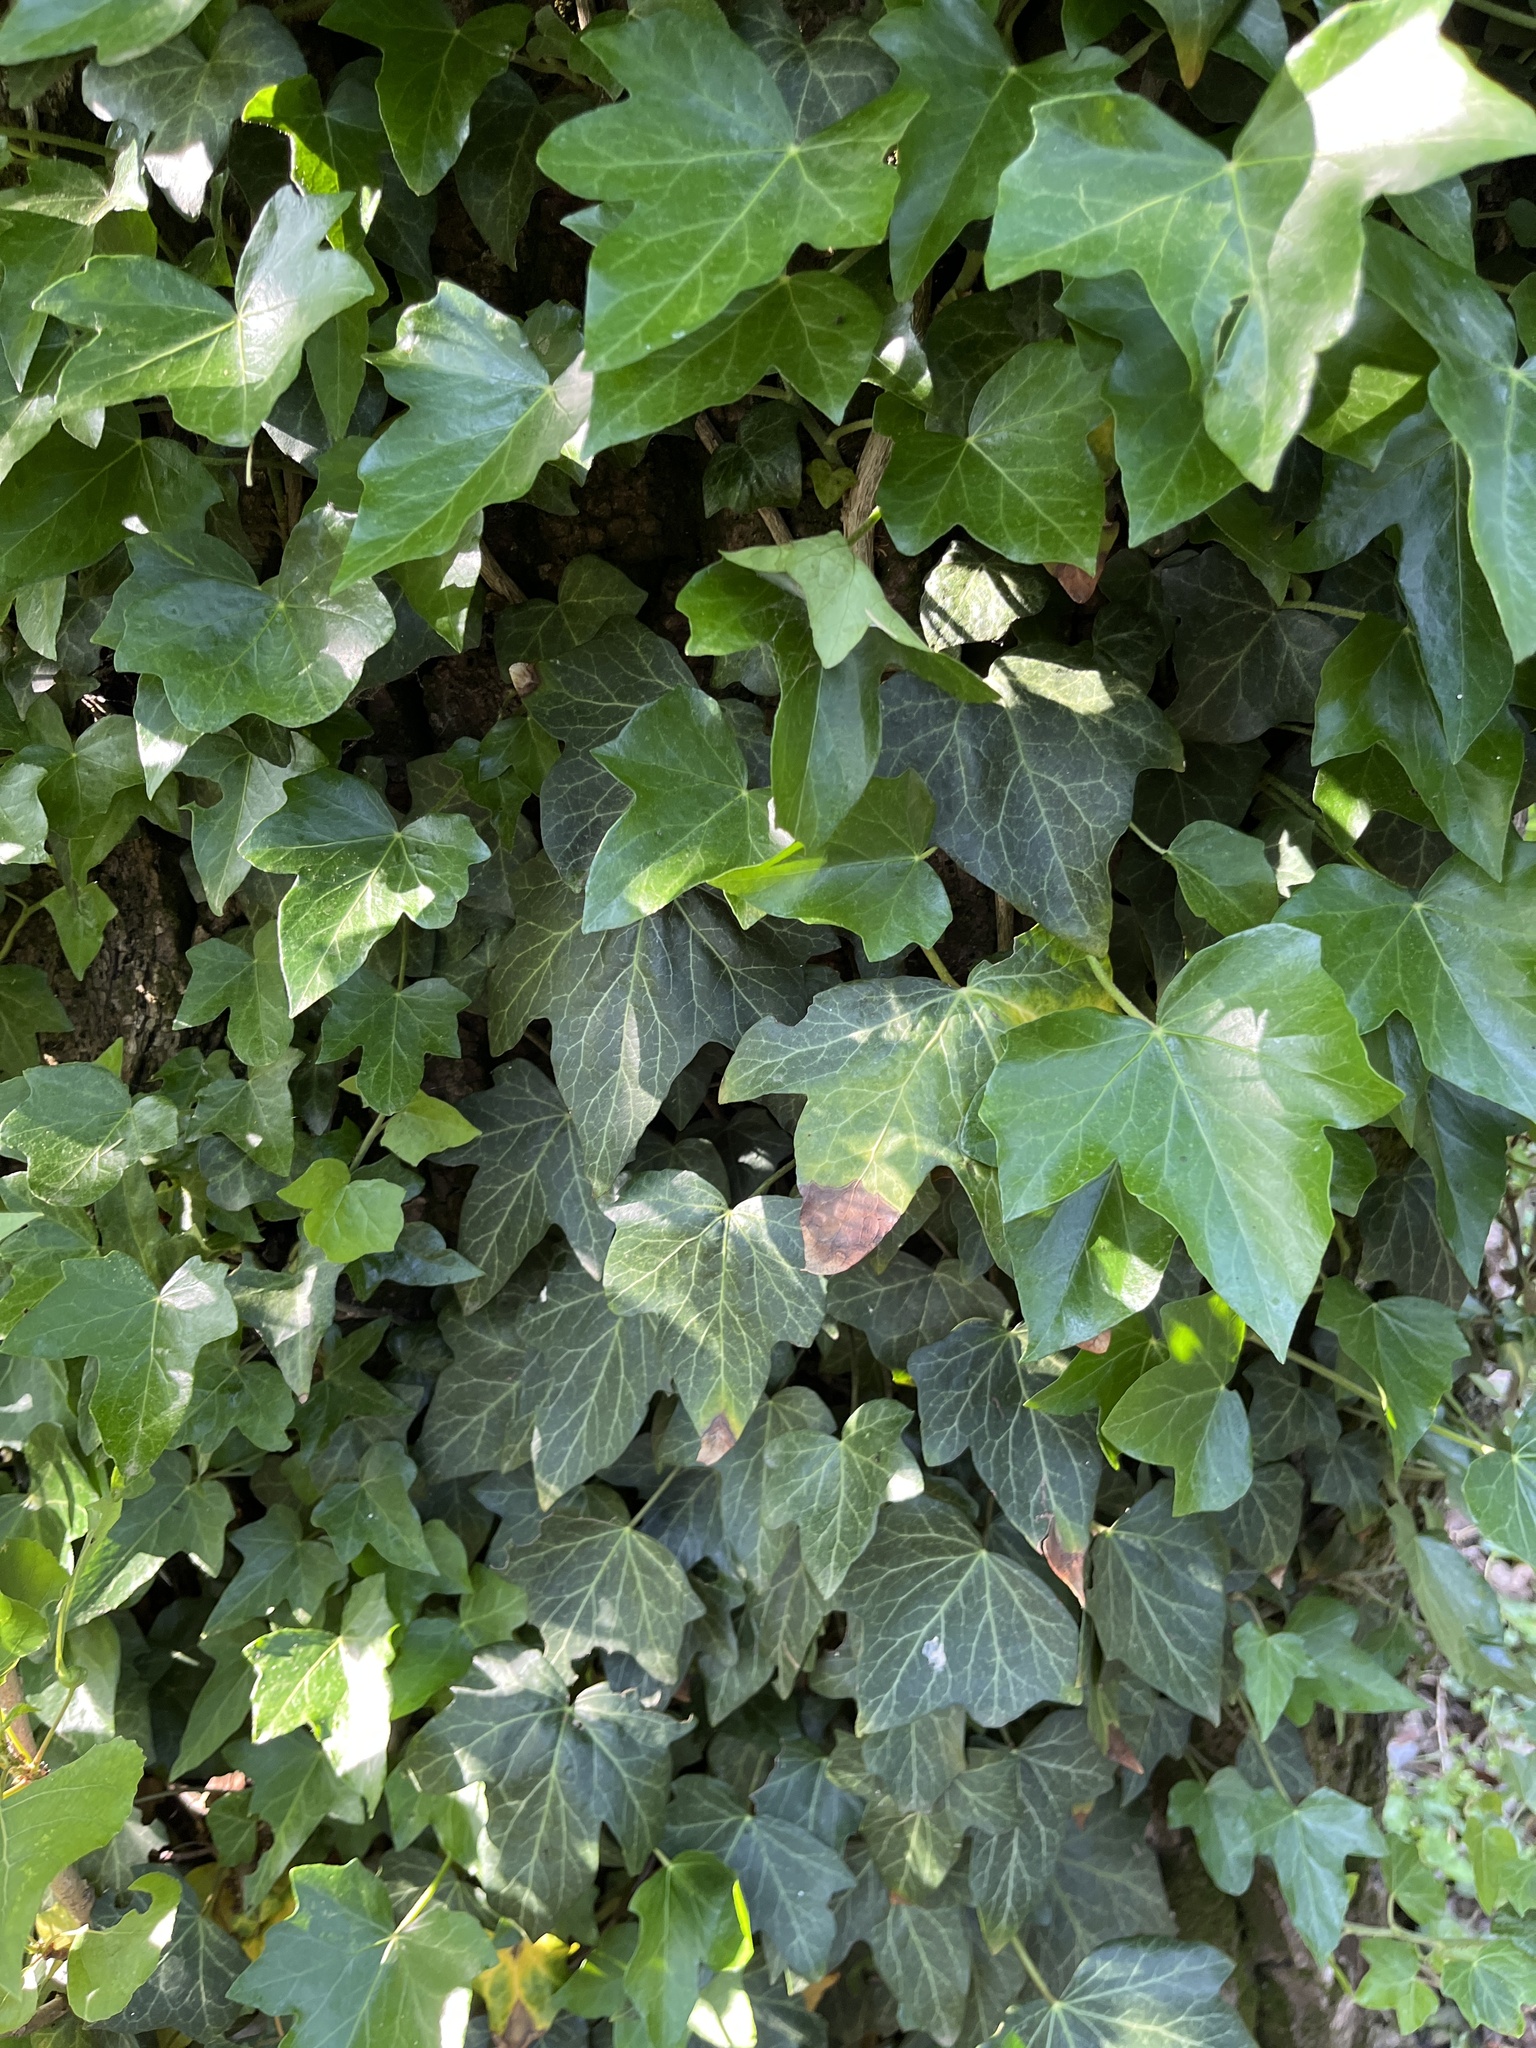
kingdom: Plantae
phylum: Tracheophyta
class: Magnoliopsida
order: Apiales
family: Araliaceae
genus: Hedera
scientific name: Hedera helix
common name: Ivy
